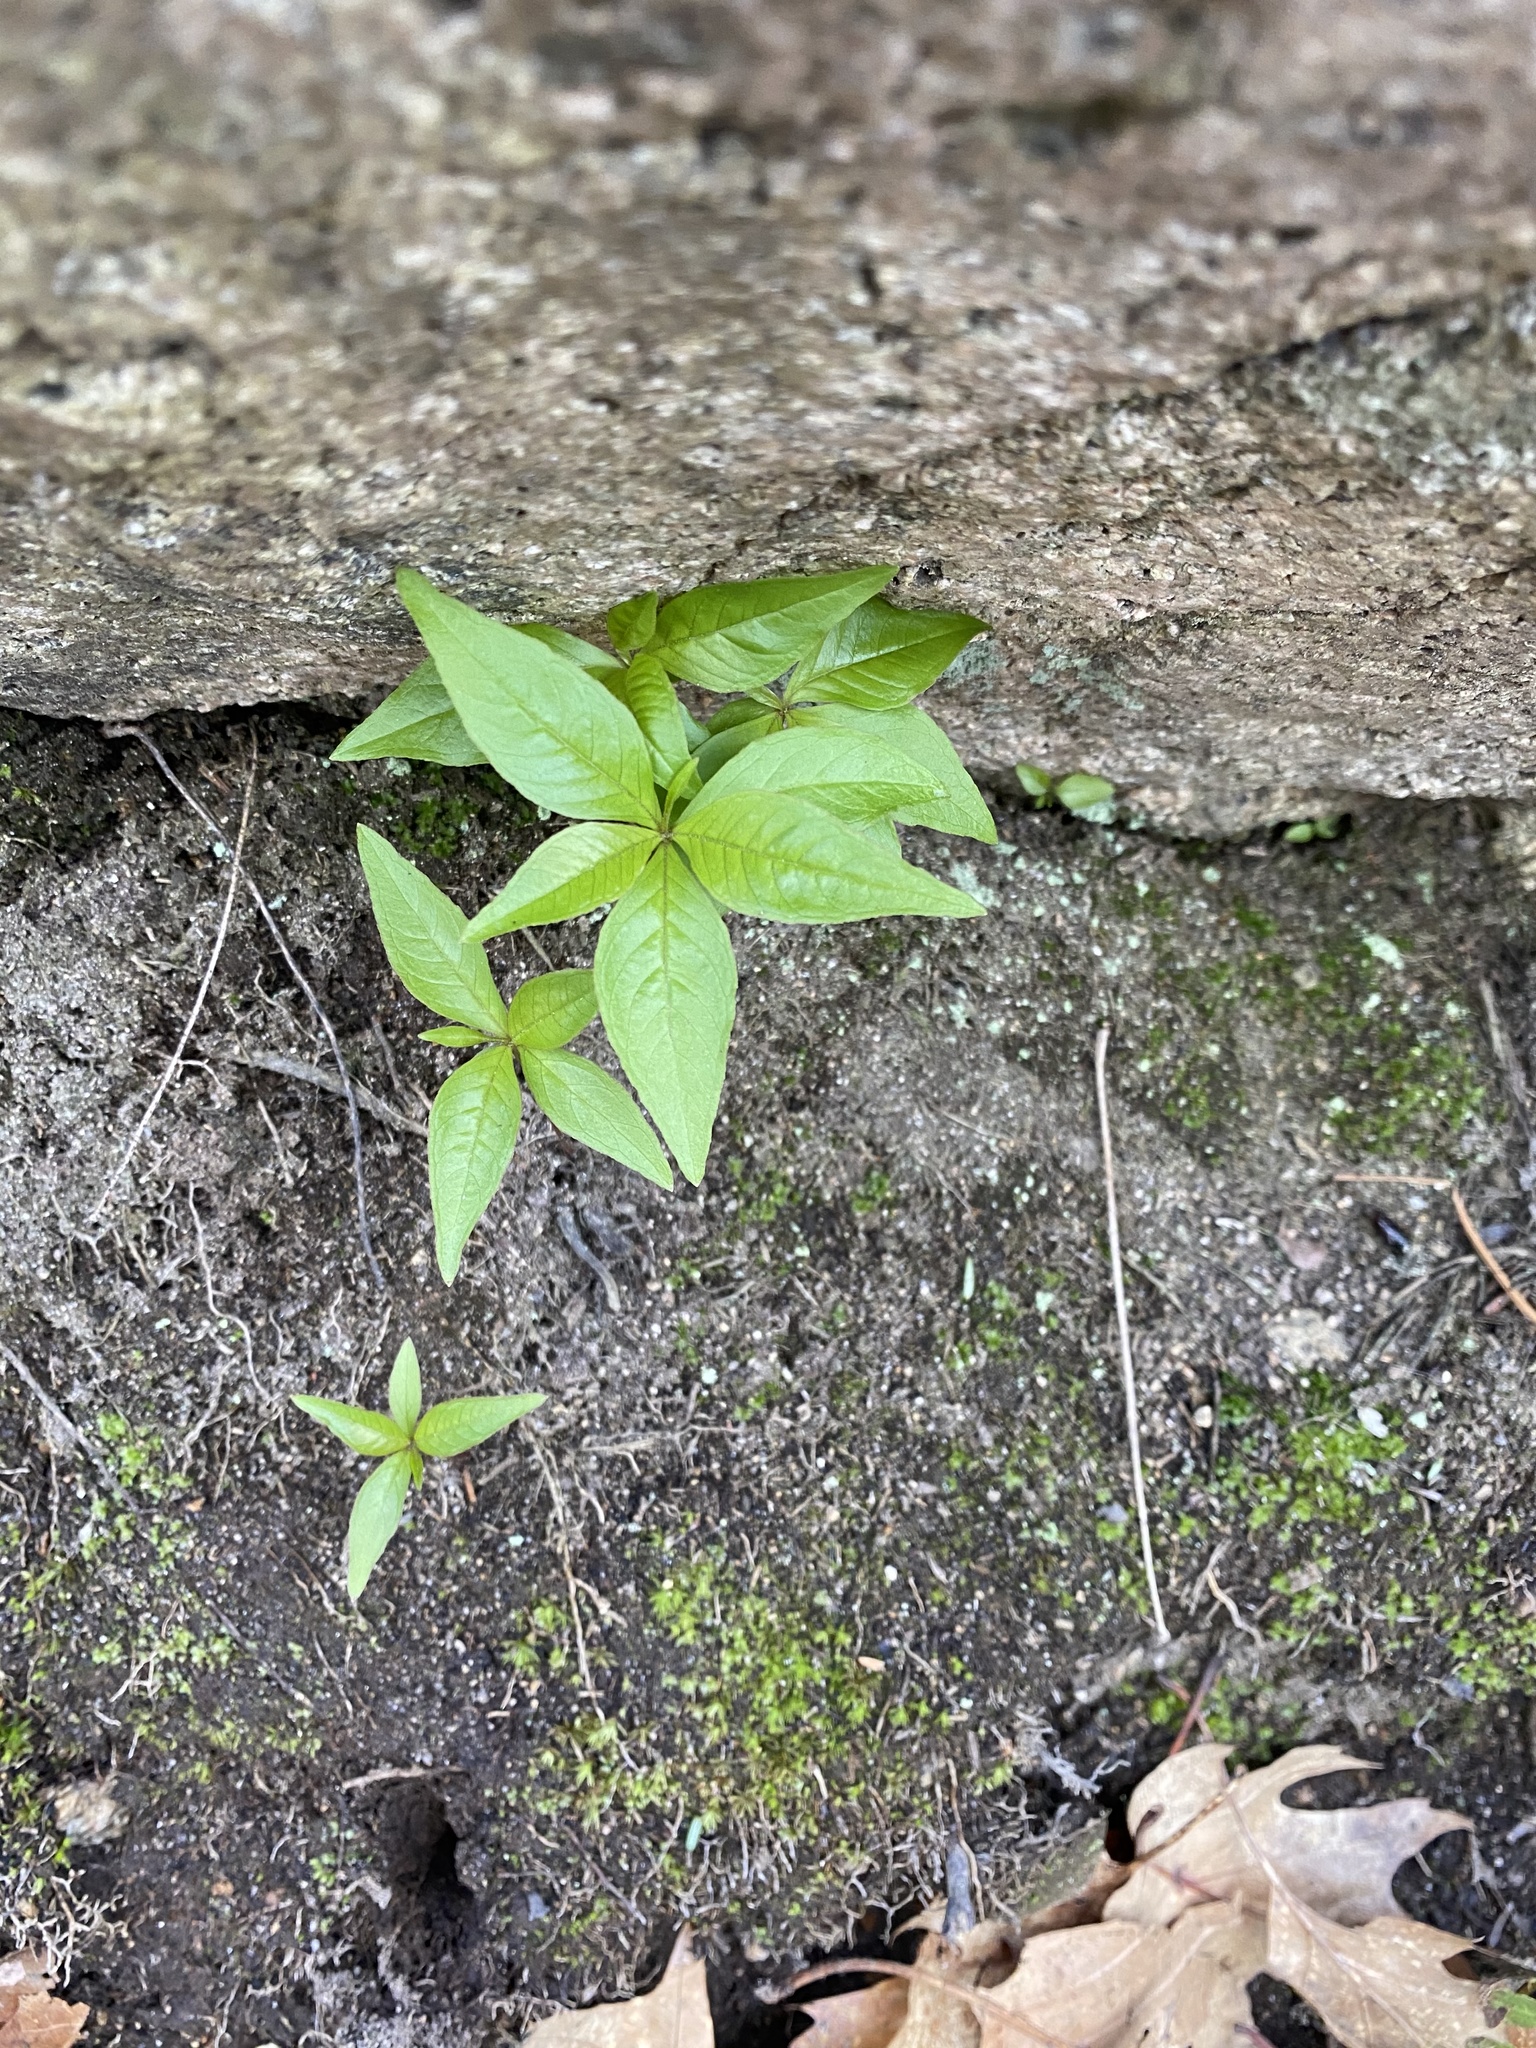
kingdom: Plantae
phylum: Tracheophyta
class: Magnoliopsida
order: Ericales
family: Primulaceae
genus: Lysimachia
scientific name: Lysimachia borealis
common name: American starflower
